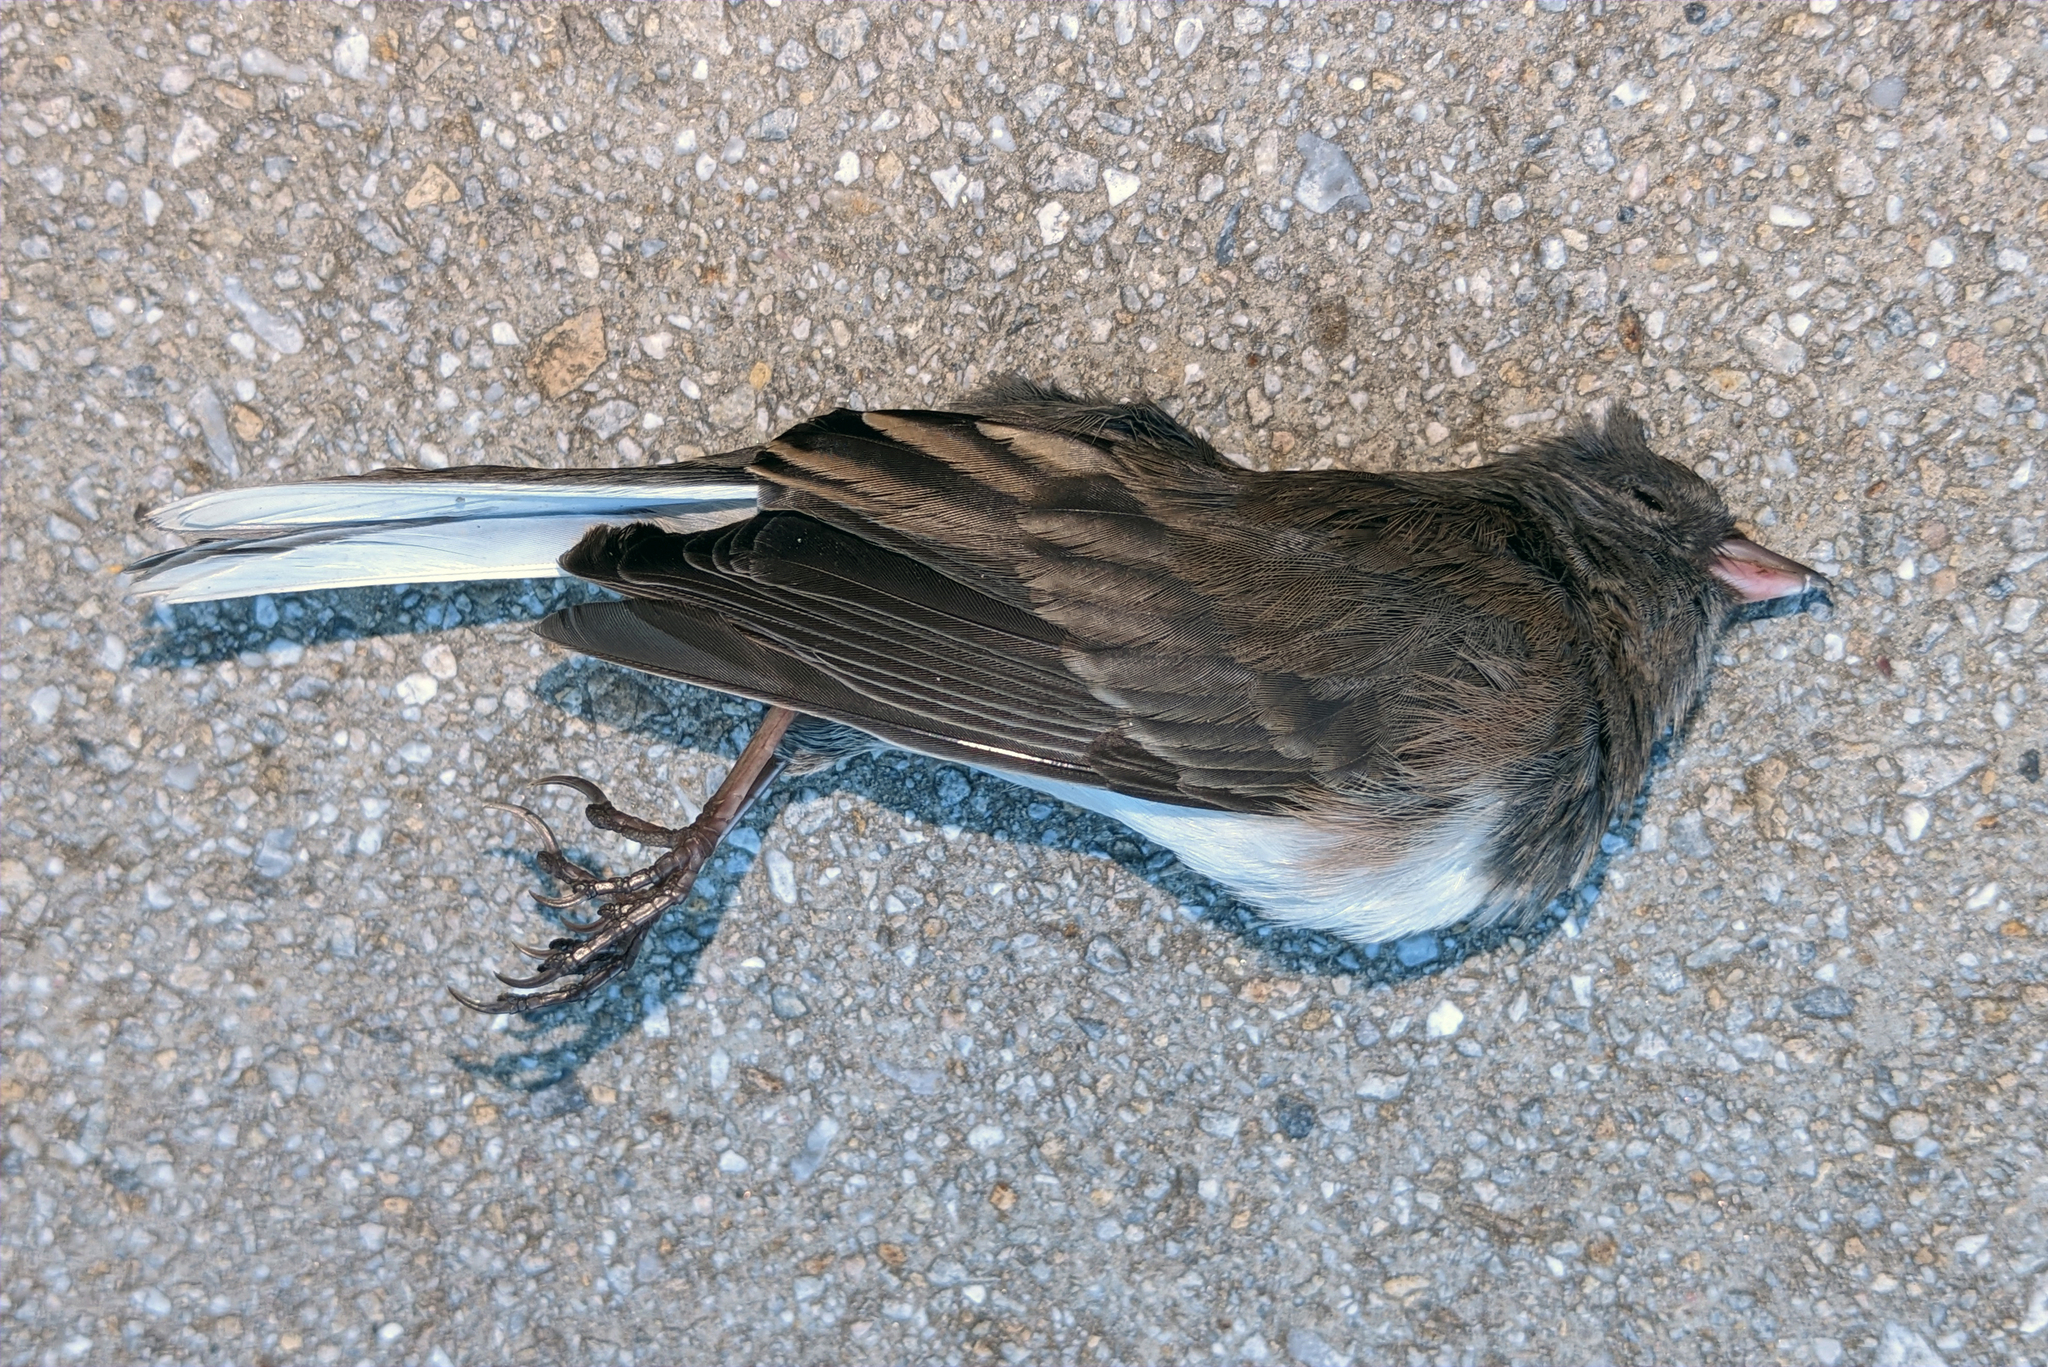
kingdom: Animalia
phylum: Chordata
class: Aves
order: Passeriformes
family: Passerellidae
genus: Junco
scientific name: Junco hyemalis
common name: Dark-eyed junco
